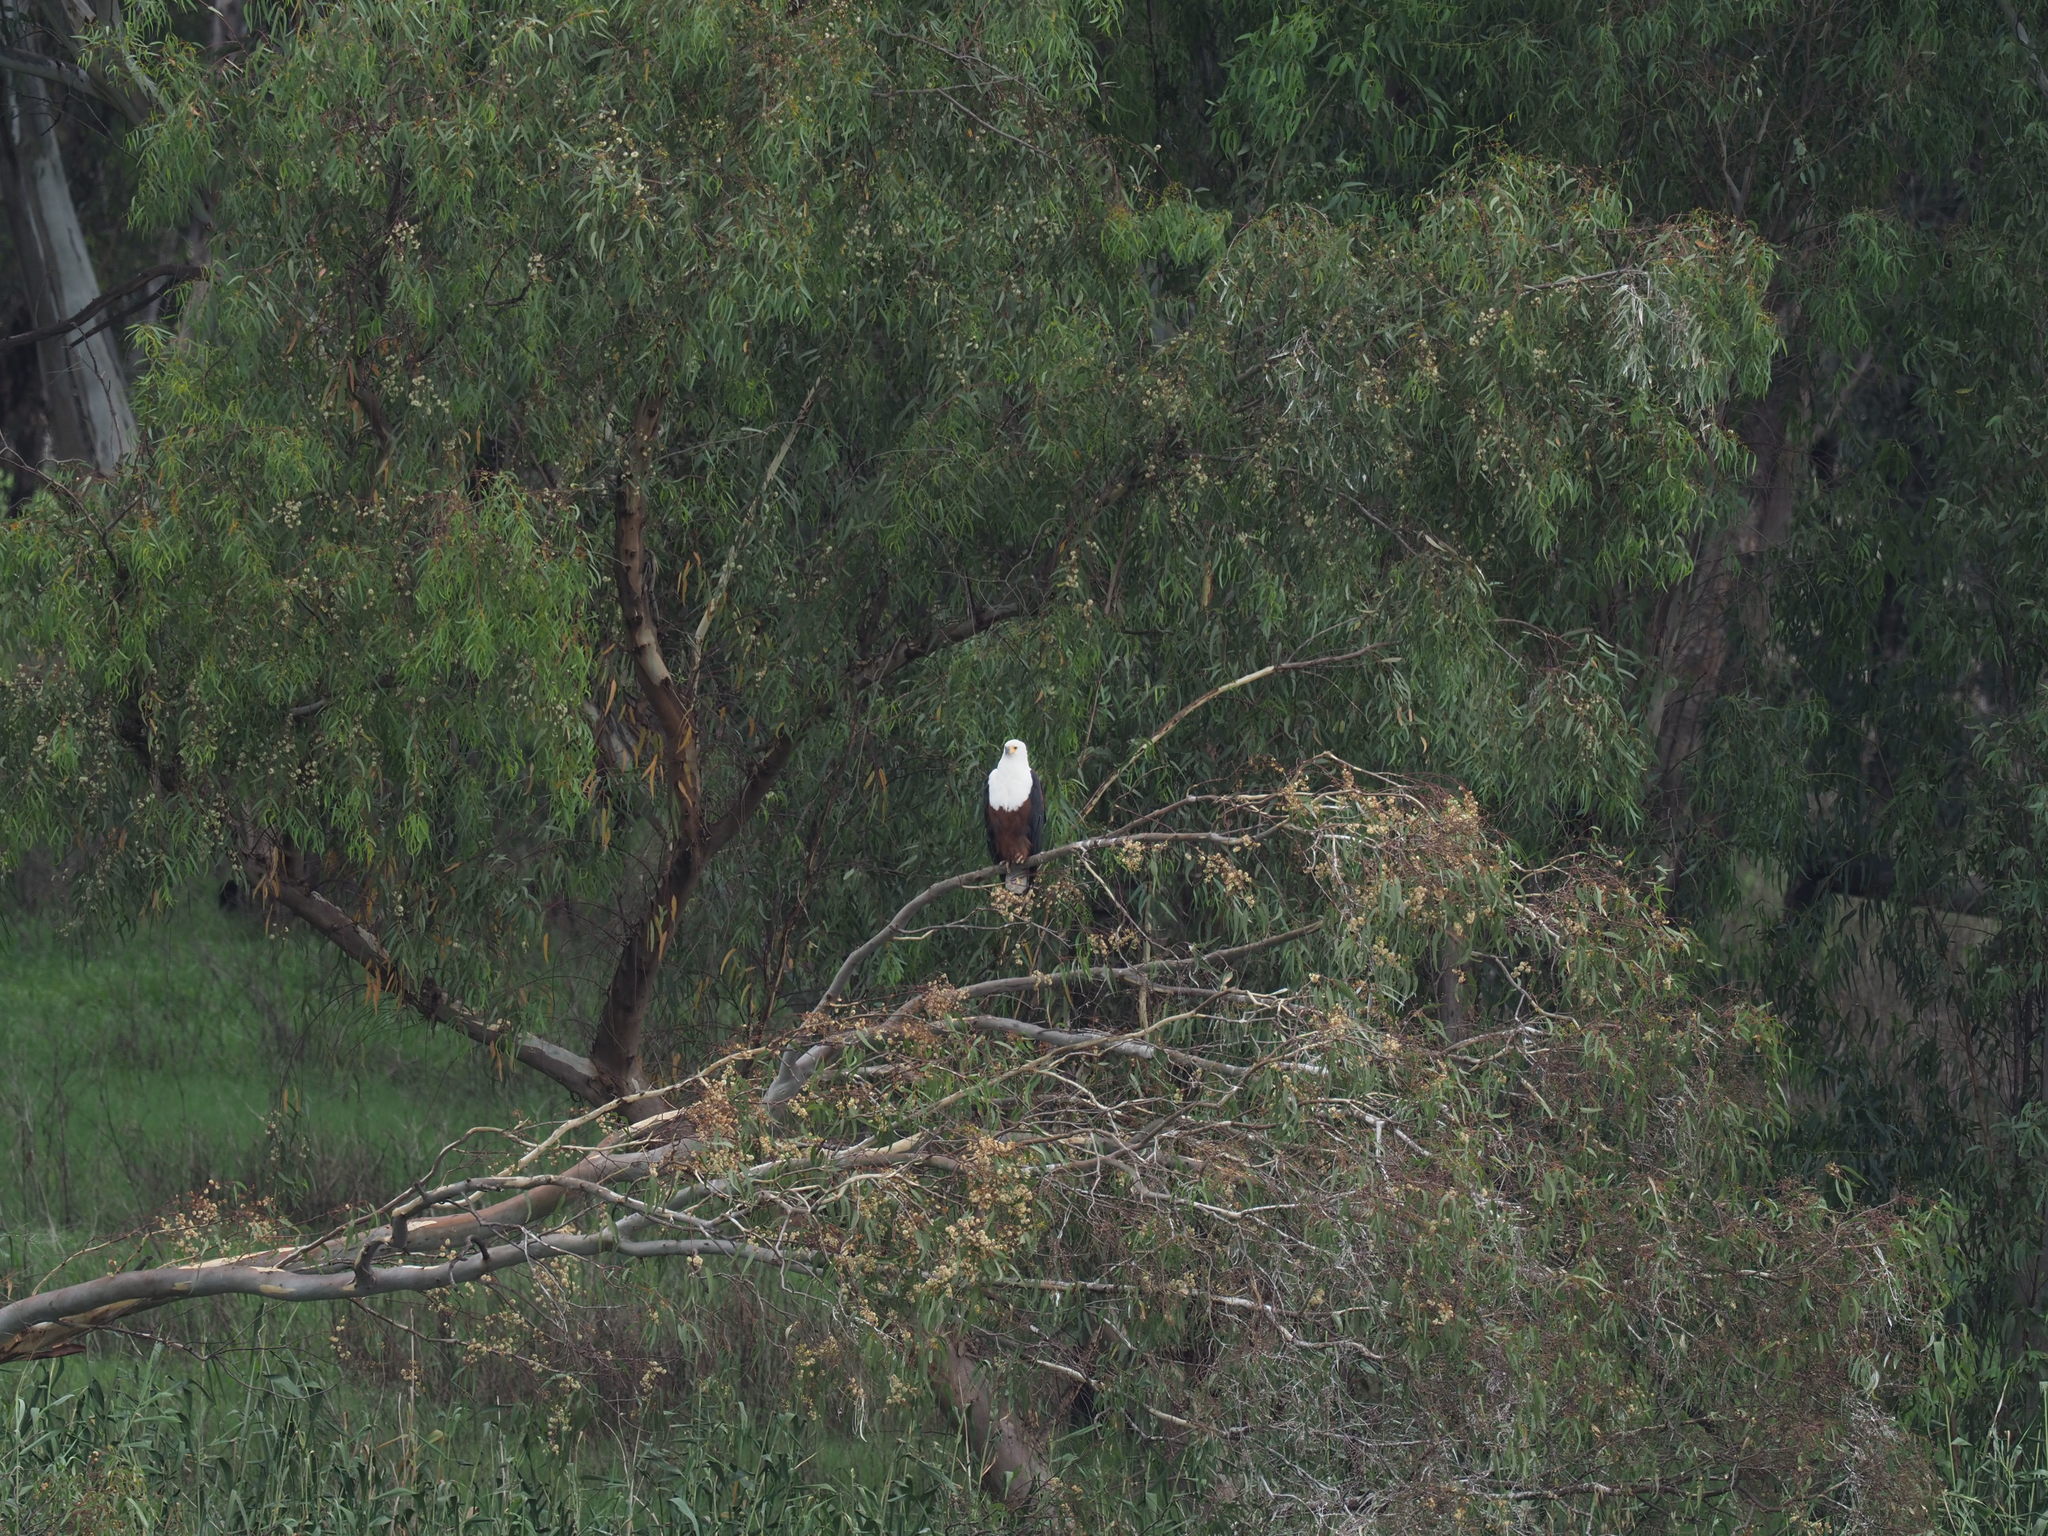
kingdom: Animalia
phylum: Chordata
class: Aves
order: Accipitriformes
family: Accipitridae
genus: Haliaeetus
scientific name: Haliaeetus vocifer
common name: African fish eagle
